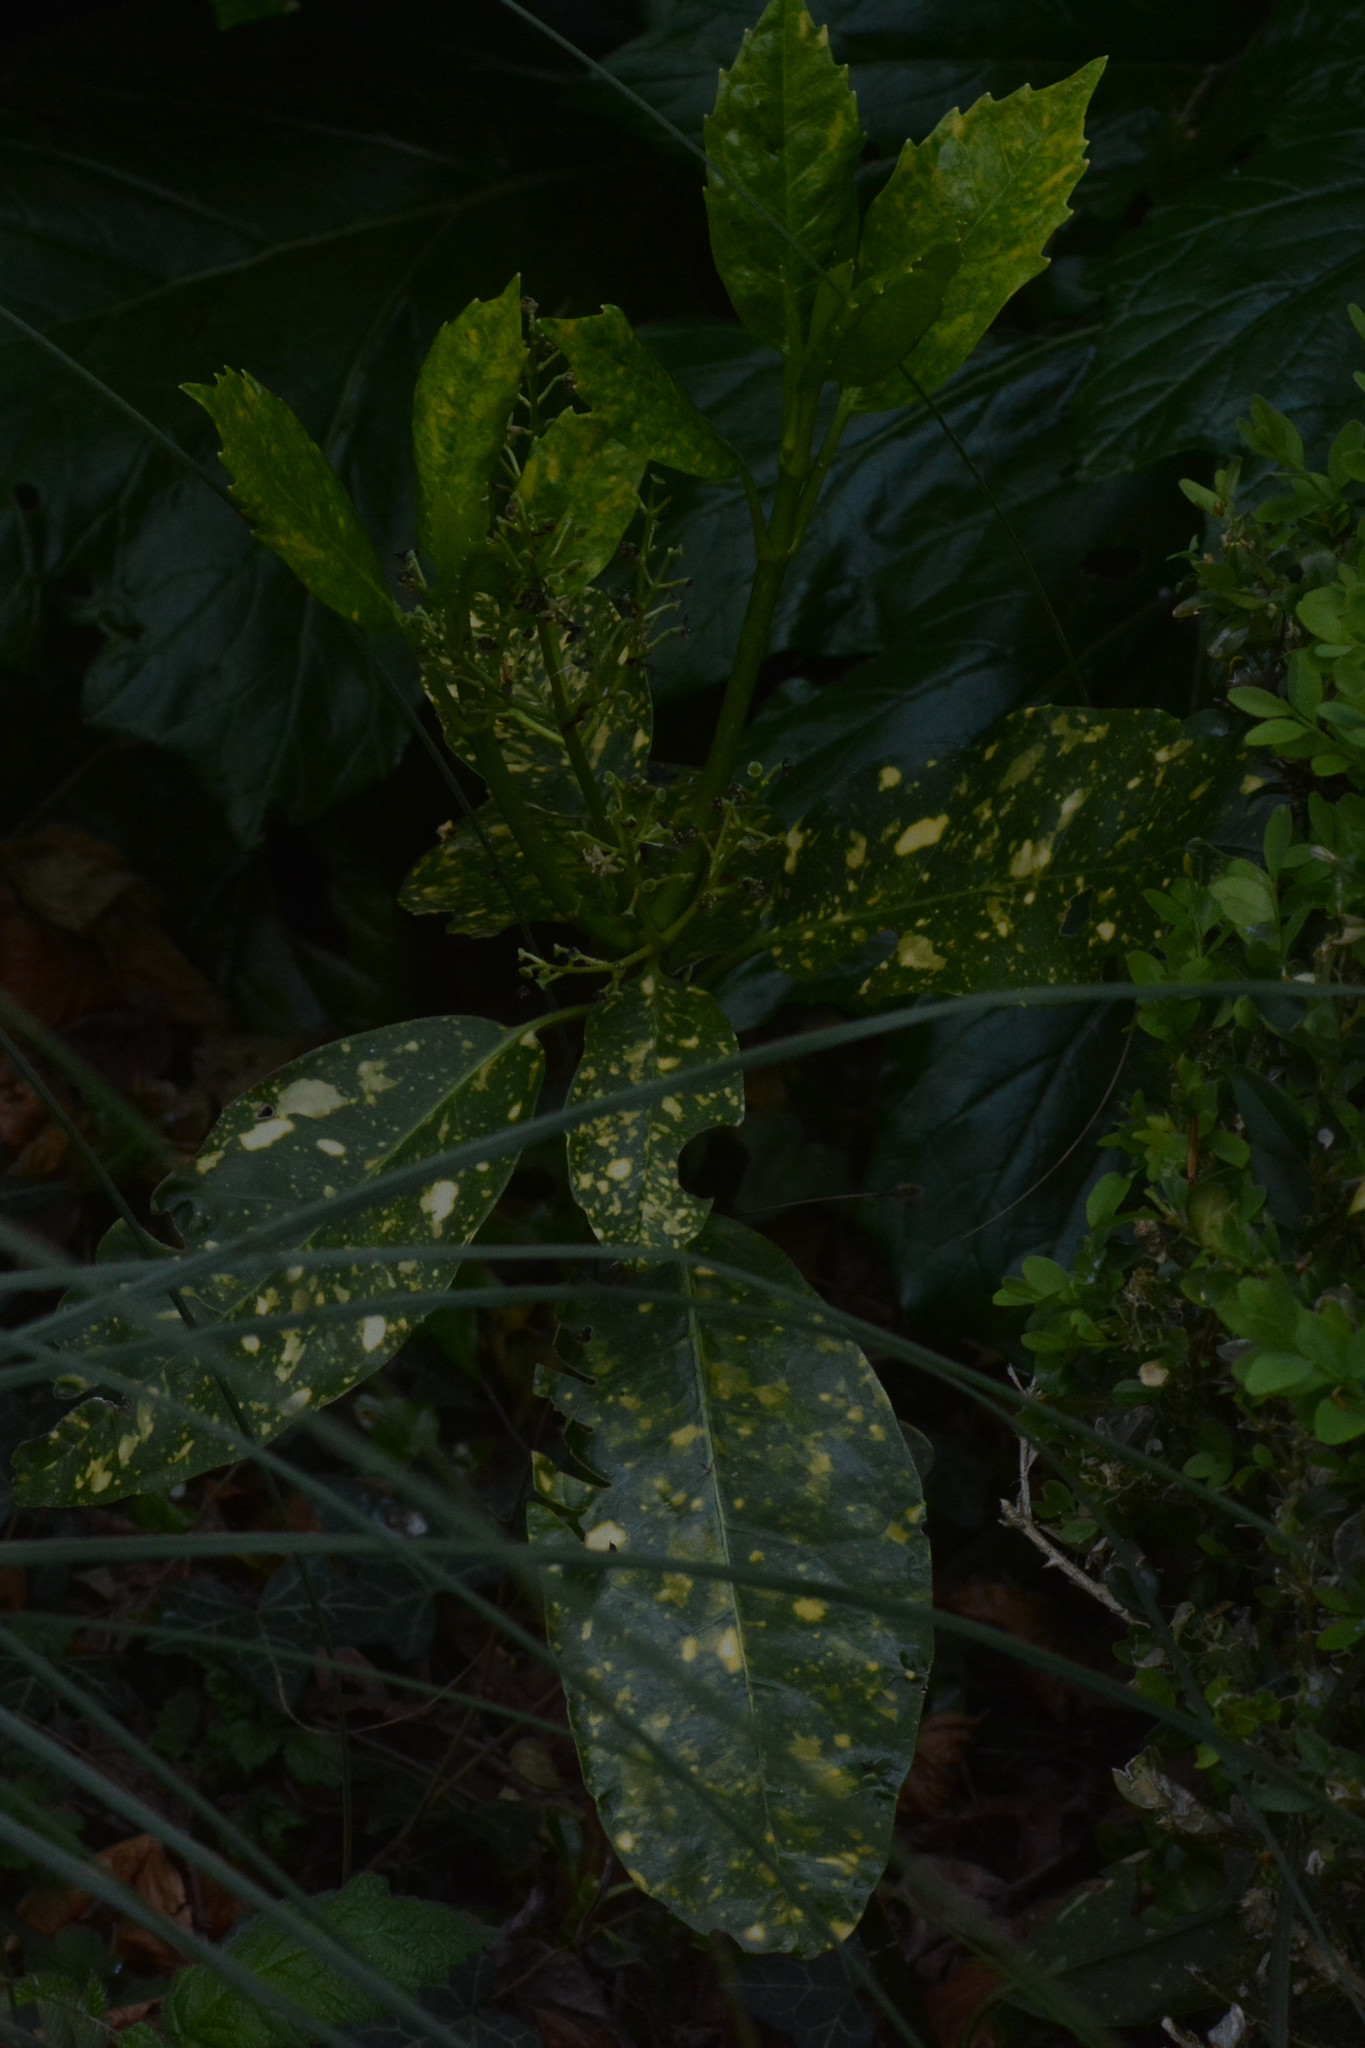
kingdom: Plantae
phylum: Tracheophyta
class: Magnoliopsida
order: Garryales
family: Garryaceae
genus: Aucuba
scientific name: Aucuba japonica
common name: Spotted-laurel
